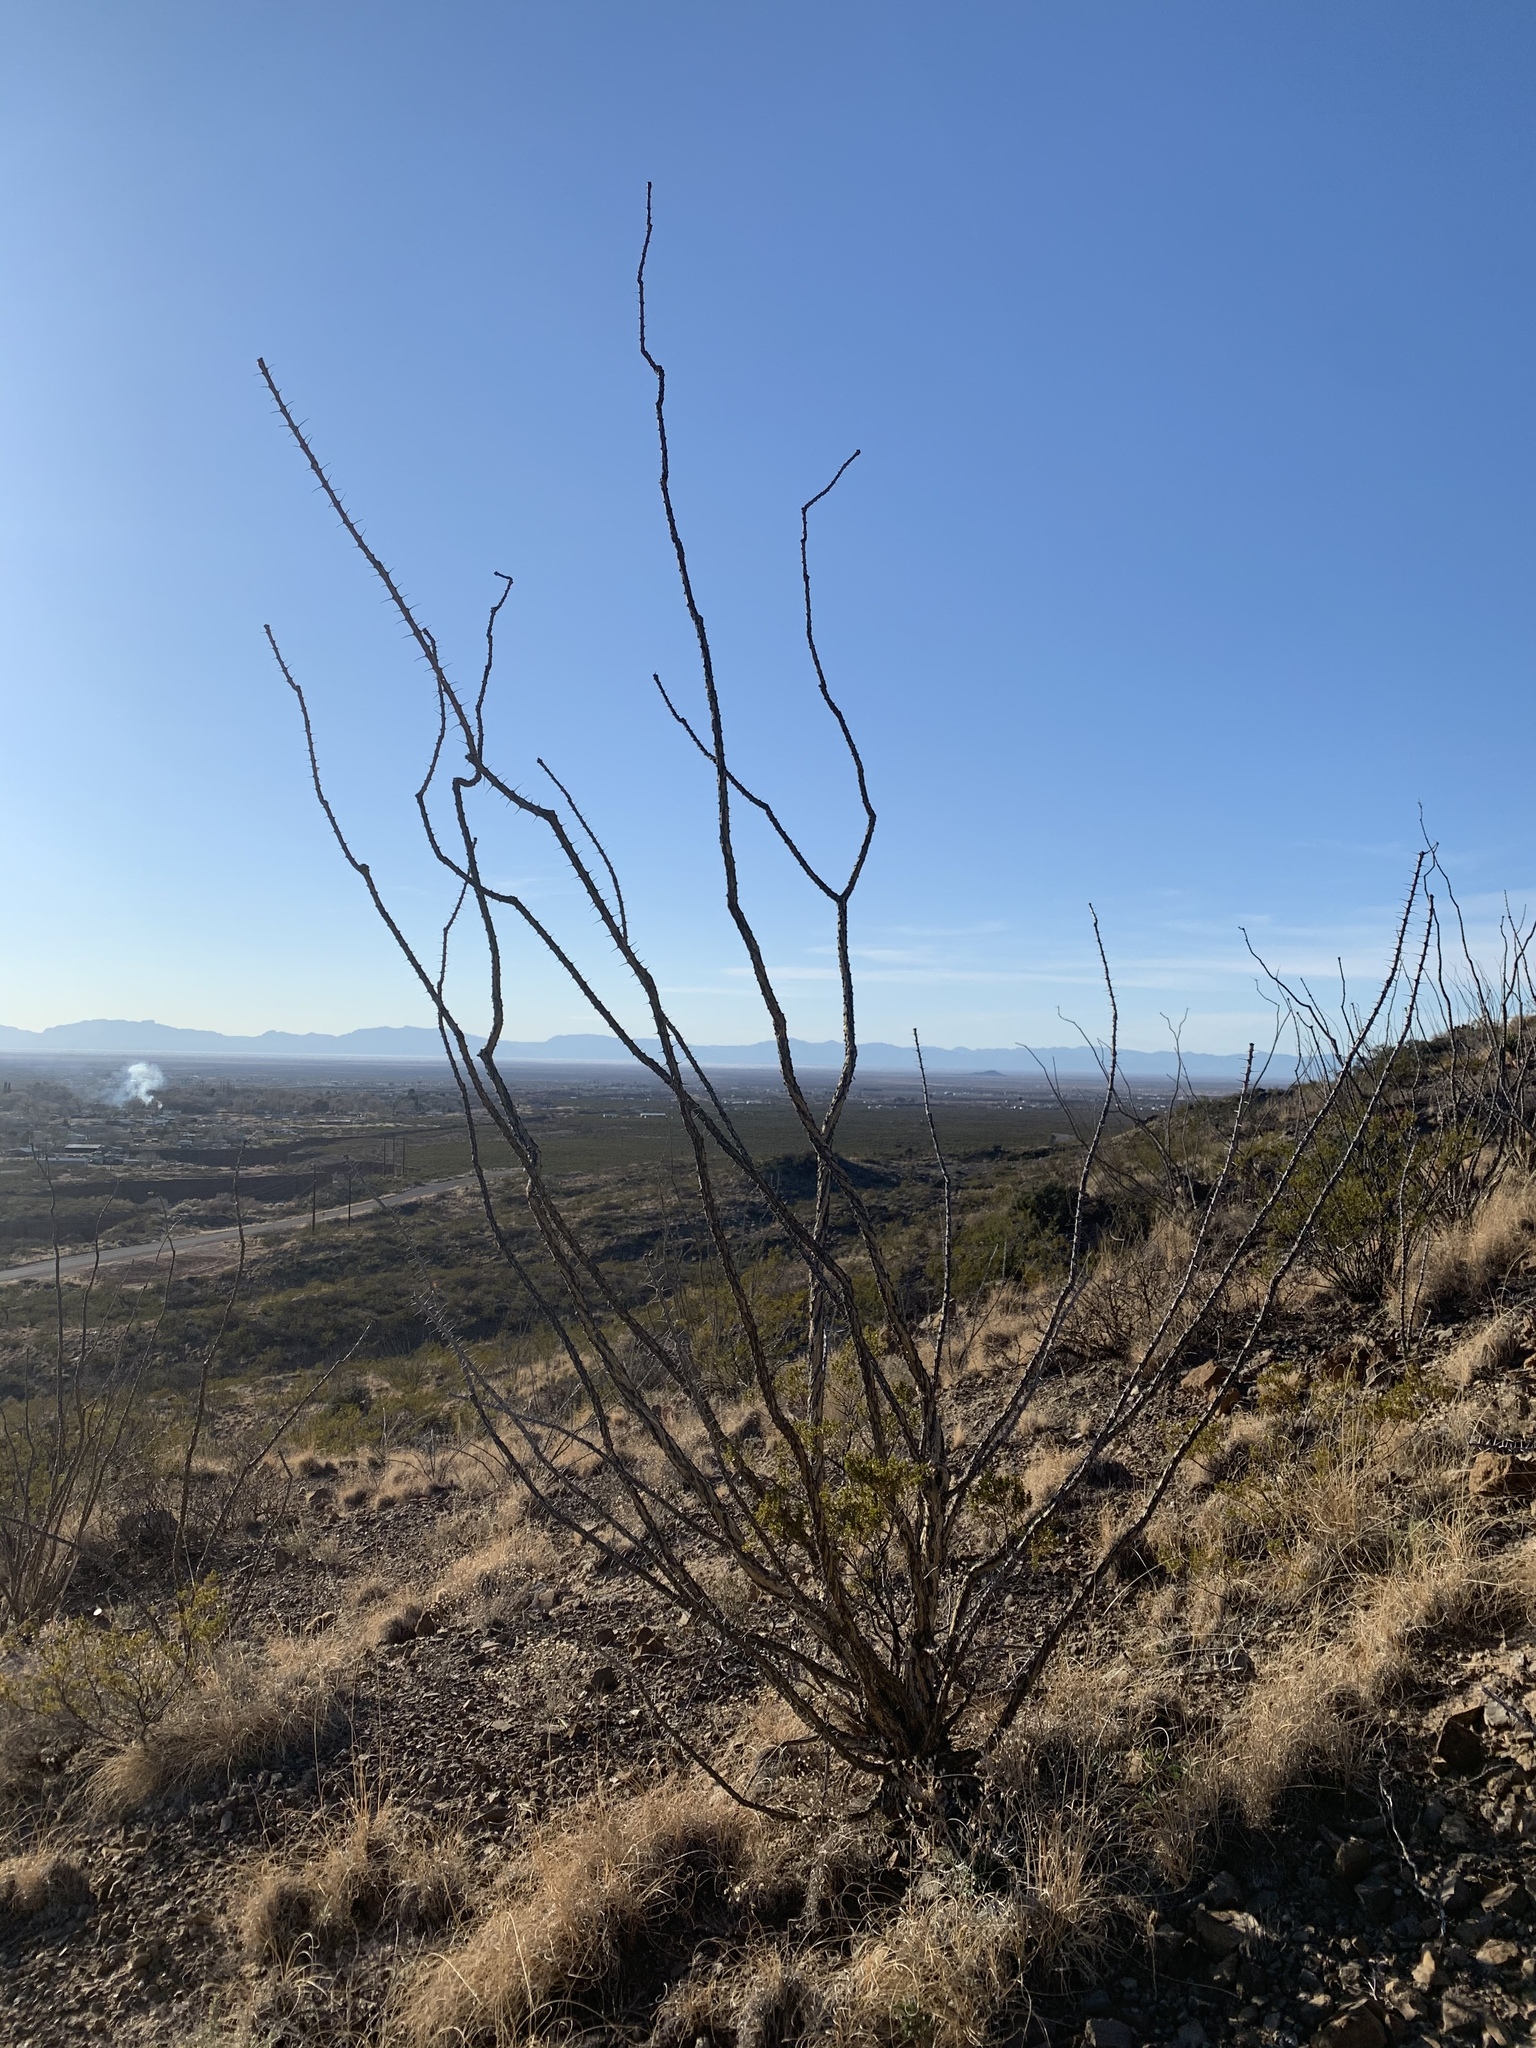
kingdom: Plantae
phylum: Tracheophyta
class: Magnoliopsida
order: Ericales
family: Fouquieriaceae
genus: Fouquieria
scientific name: Fouquieria splendens
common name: Vine-cactus
